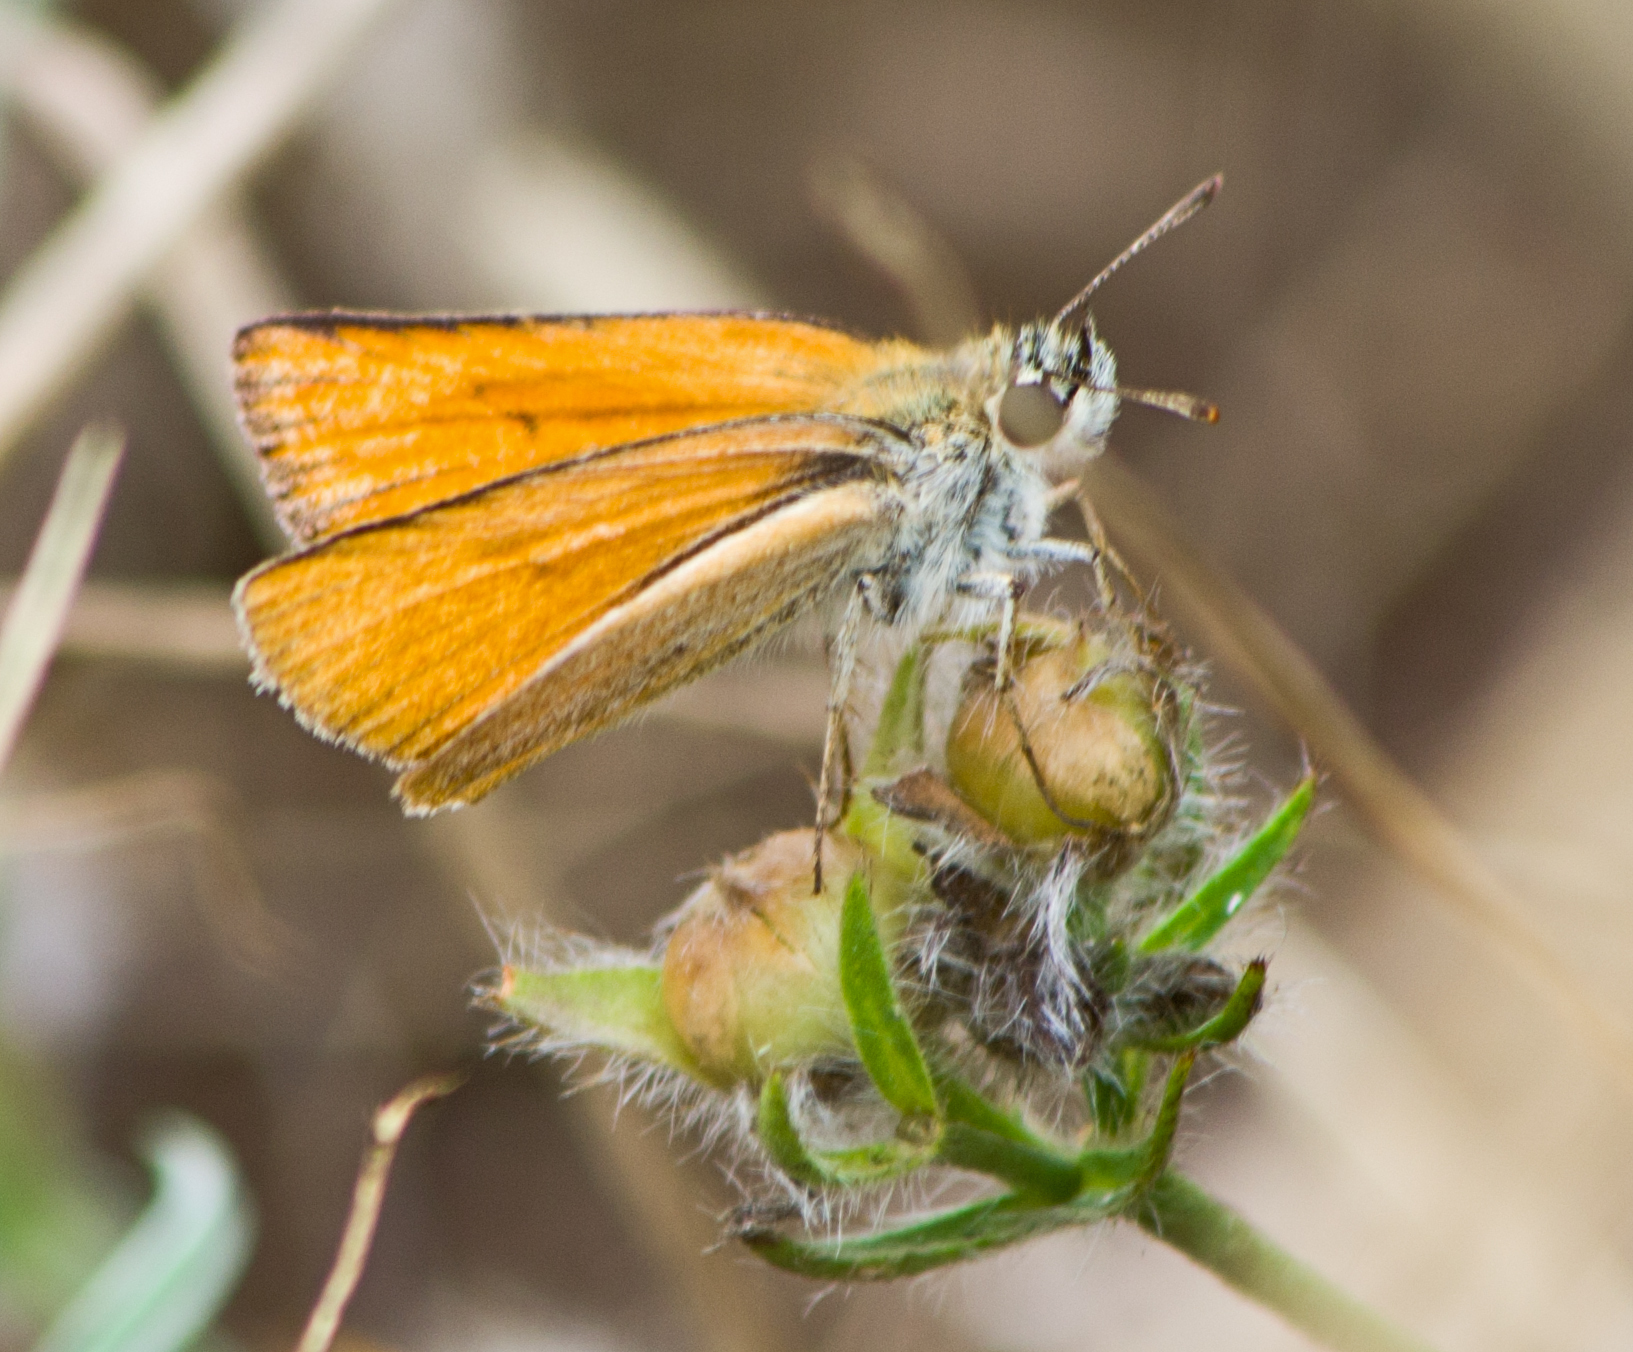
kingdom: Animalia
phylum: Arthropoda
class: Insecta
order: Lepidoptera
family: Hesperiidae
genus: Thymelicus
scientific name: Thymelicus sylvestris
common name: Small skipper
